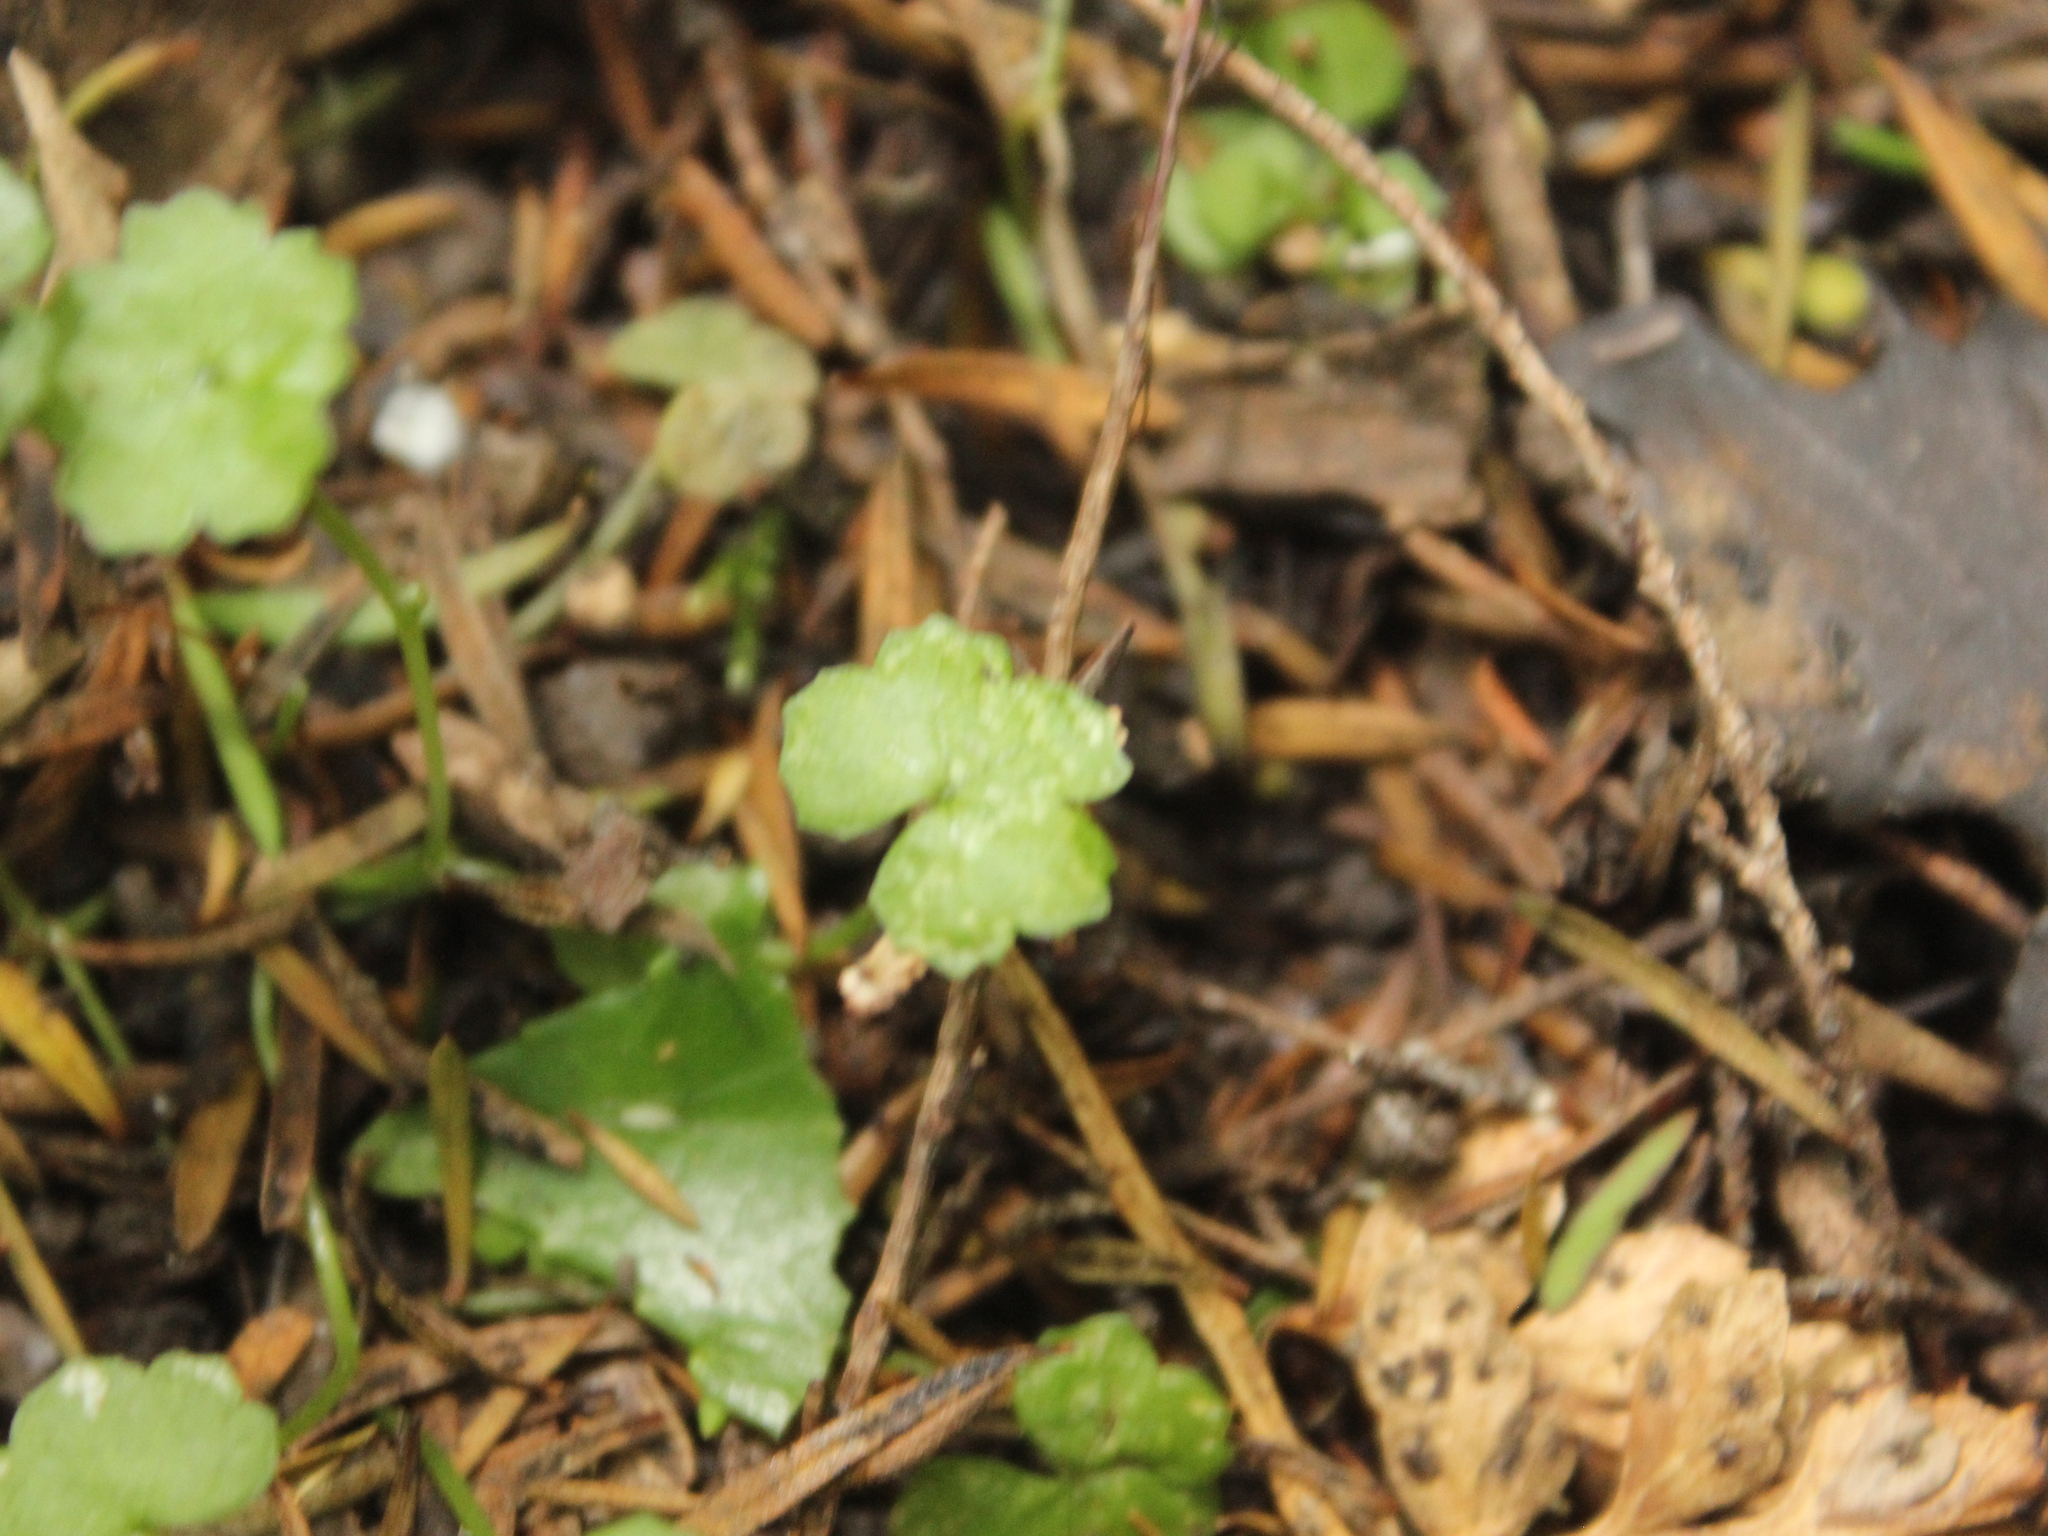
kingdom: Plantae
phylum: Tracheophyta
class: Magnoliopsida
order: Apiales
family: Araliaceae
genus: Hydrocotyle
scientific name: Hydrocotyle heteromeria
